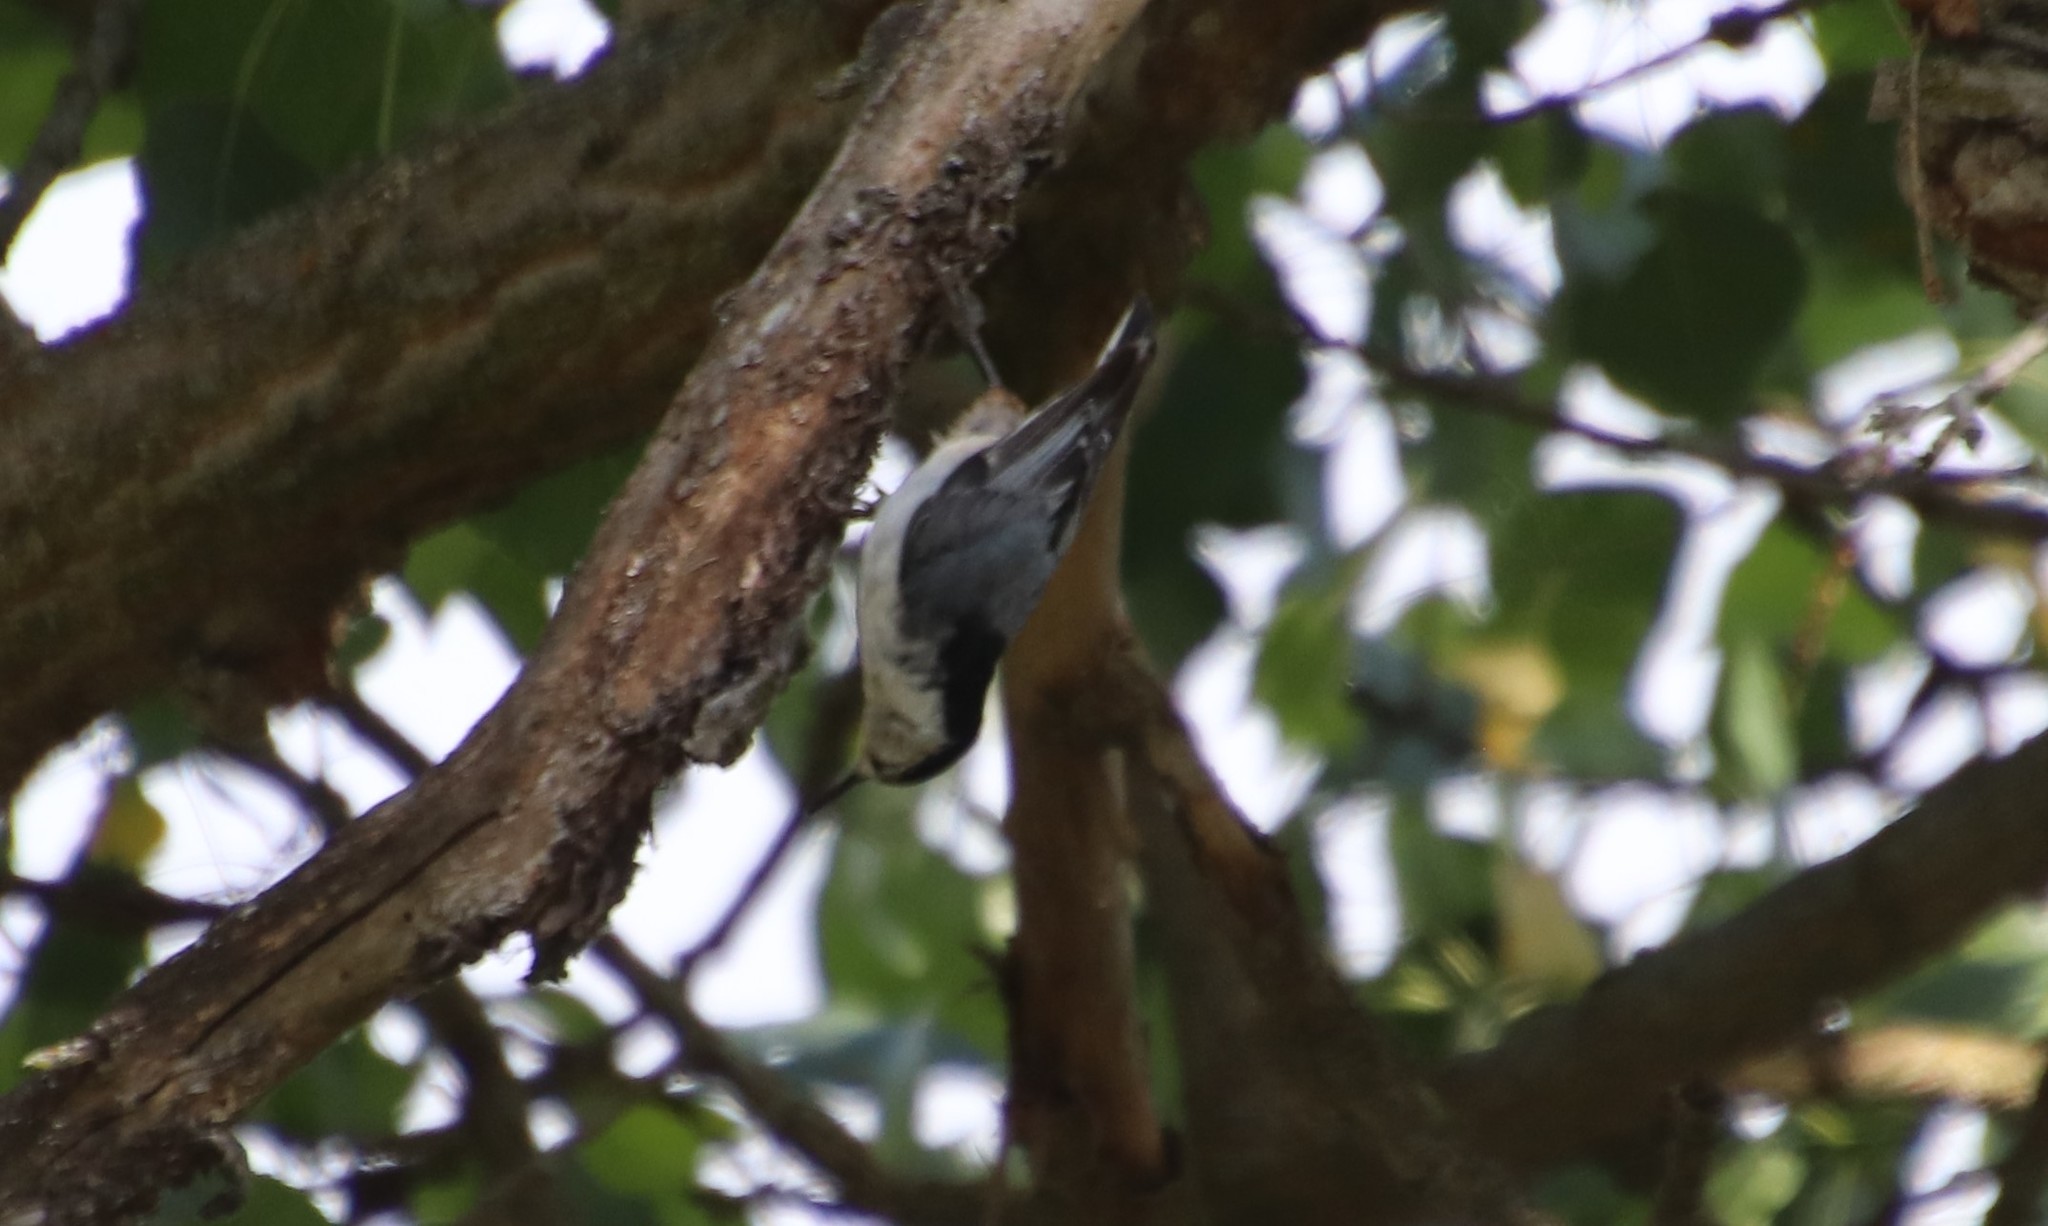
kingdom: Animalia
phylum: Chordata
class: Aves
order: Passeriformes
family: Sittidae
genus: Sitta
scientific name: Sitta carolinensis
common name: White-breasted nuthatch
